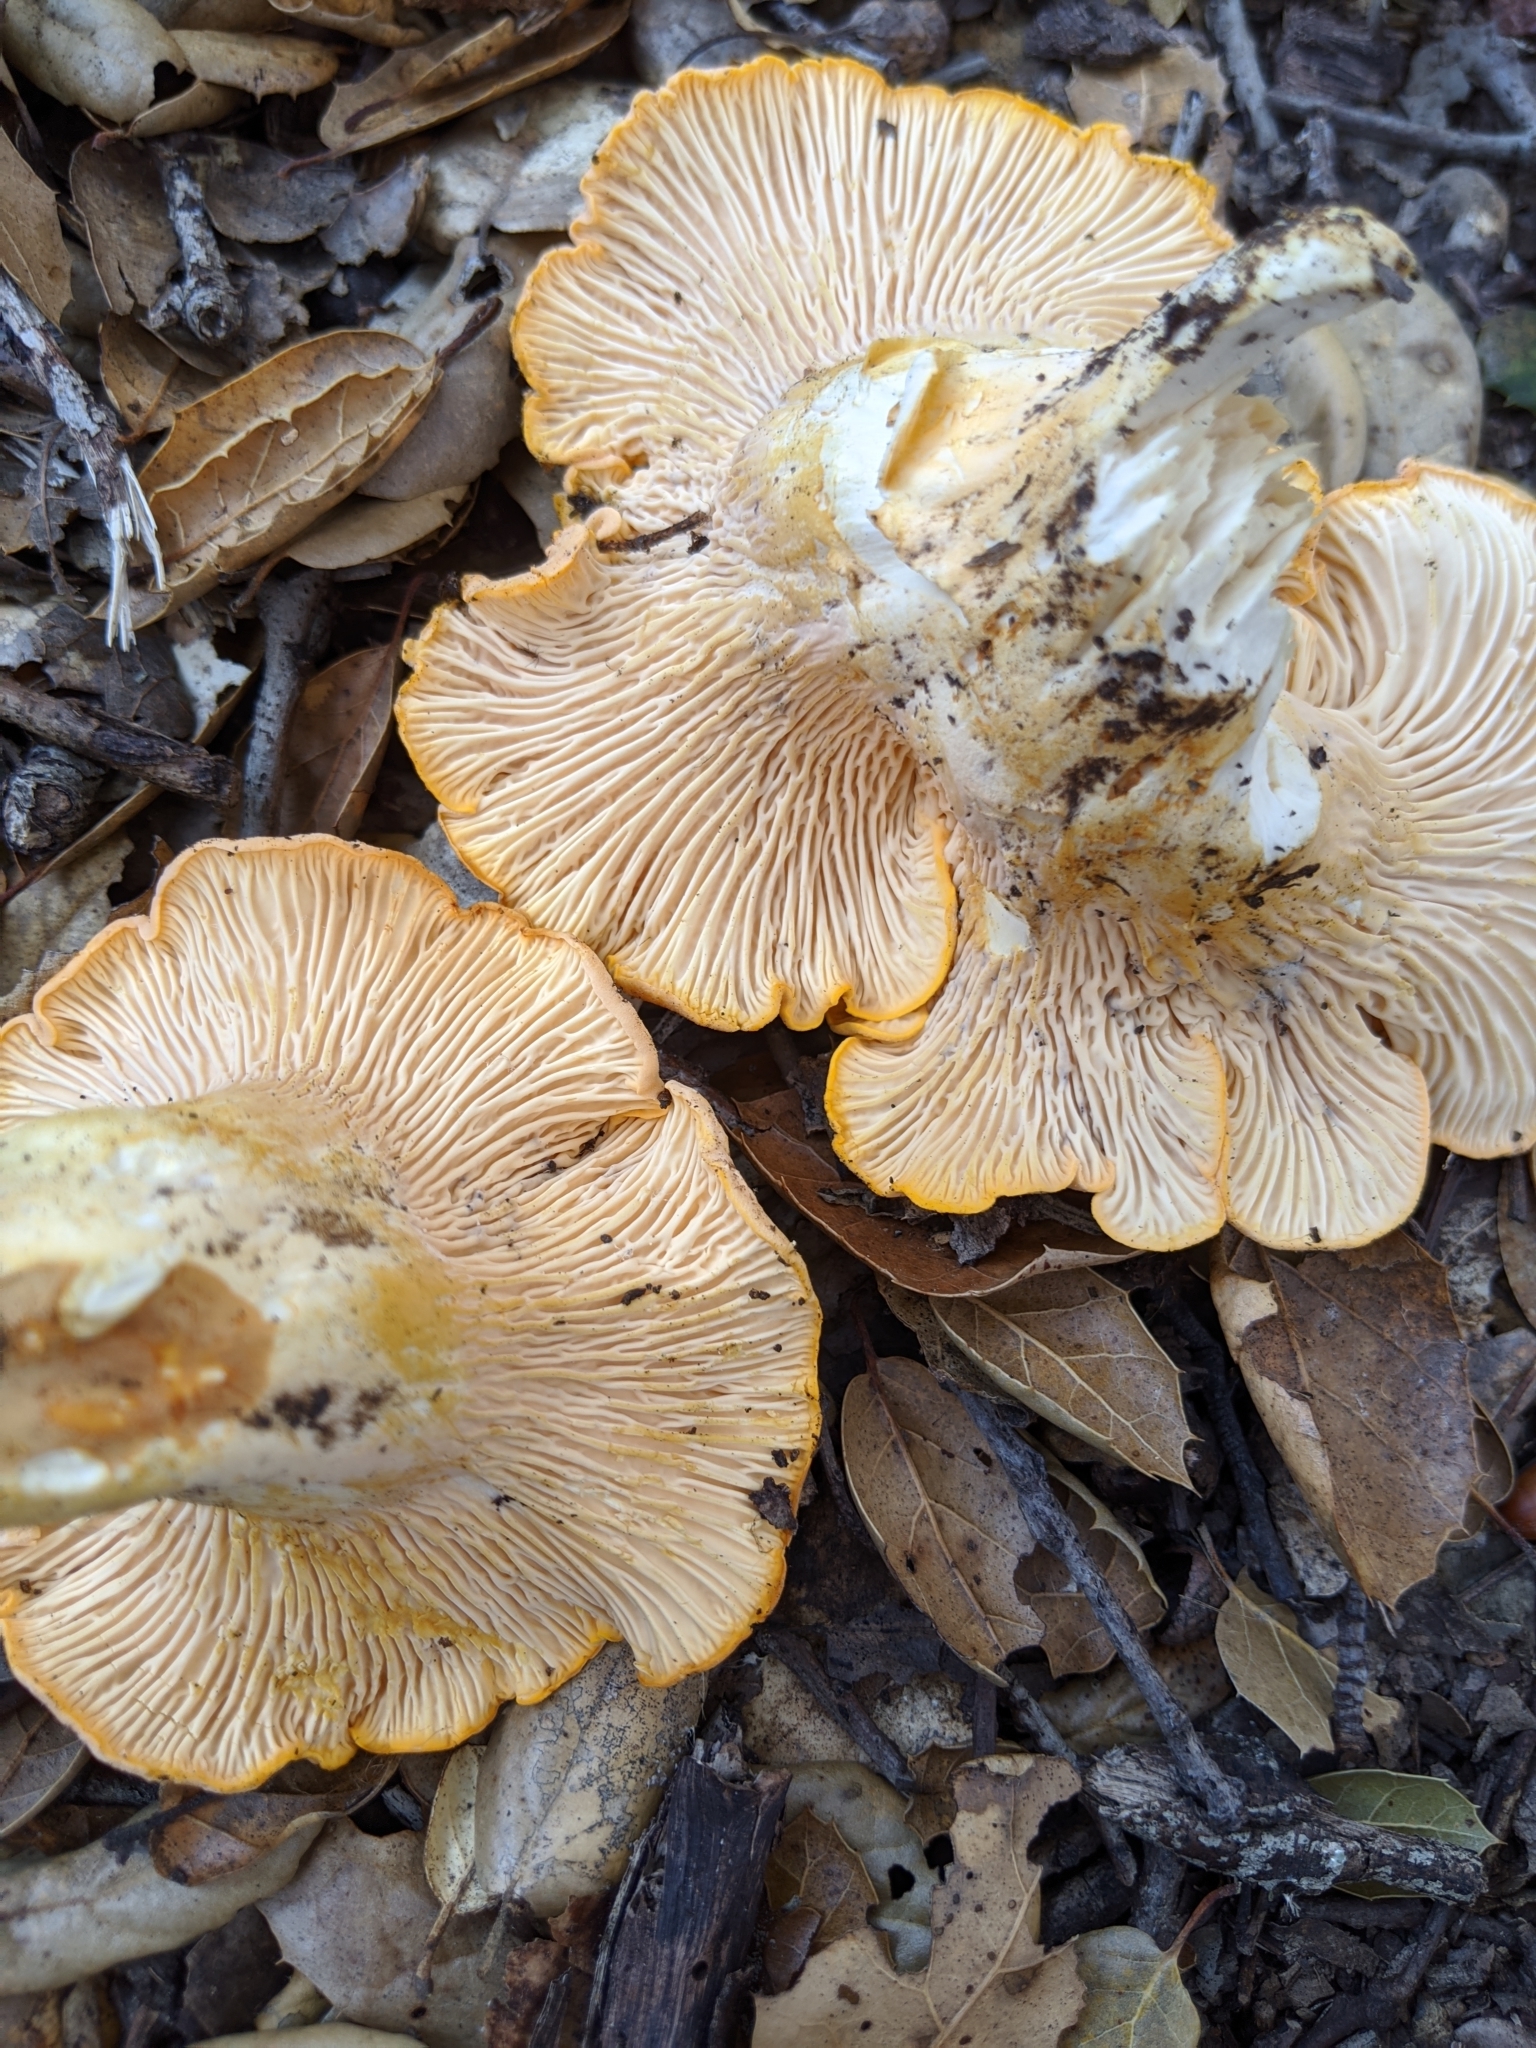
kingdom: Fungi
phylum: Basidiomycota
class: Agaricomycetes
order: Cantharellales
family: Hydnaceae
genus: Cantharellus
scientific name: Cantharellus californicus
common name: California golden chanterelle
